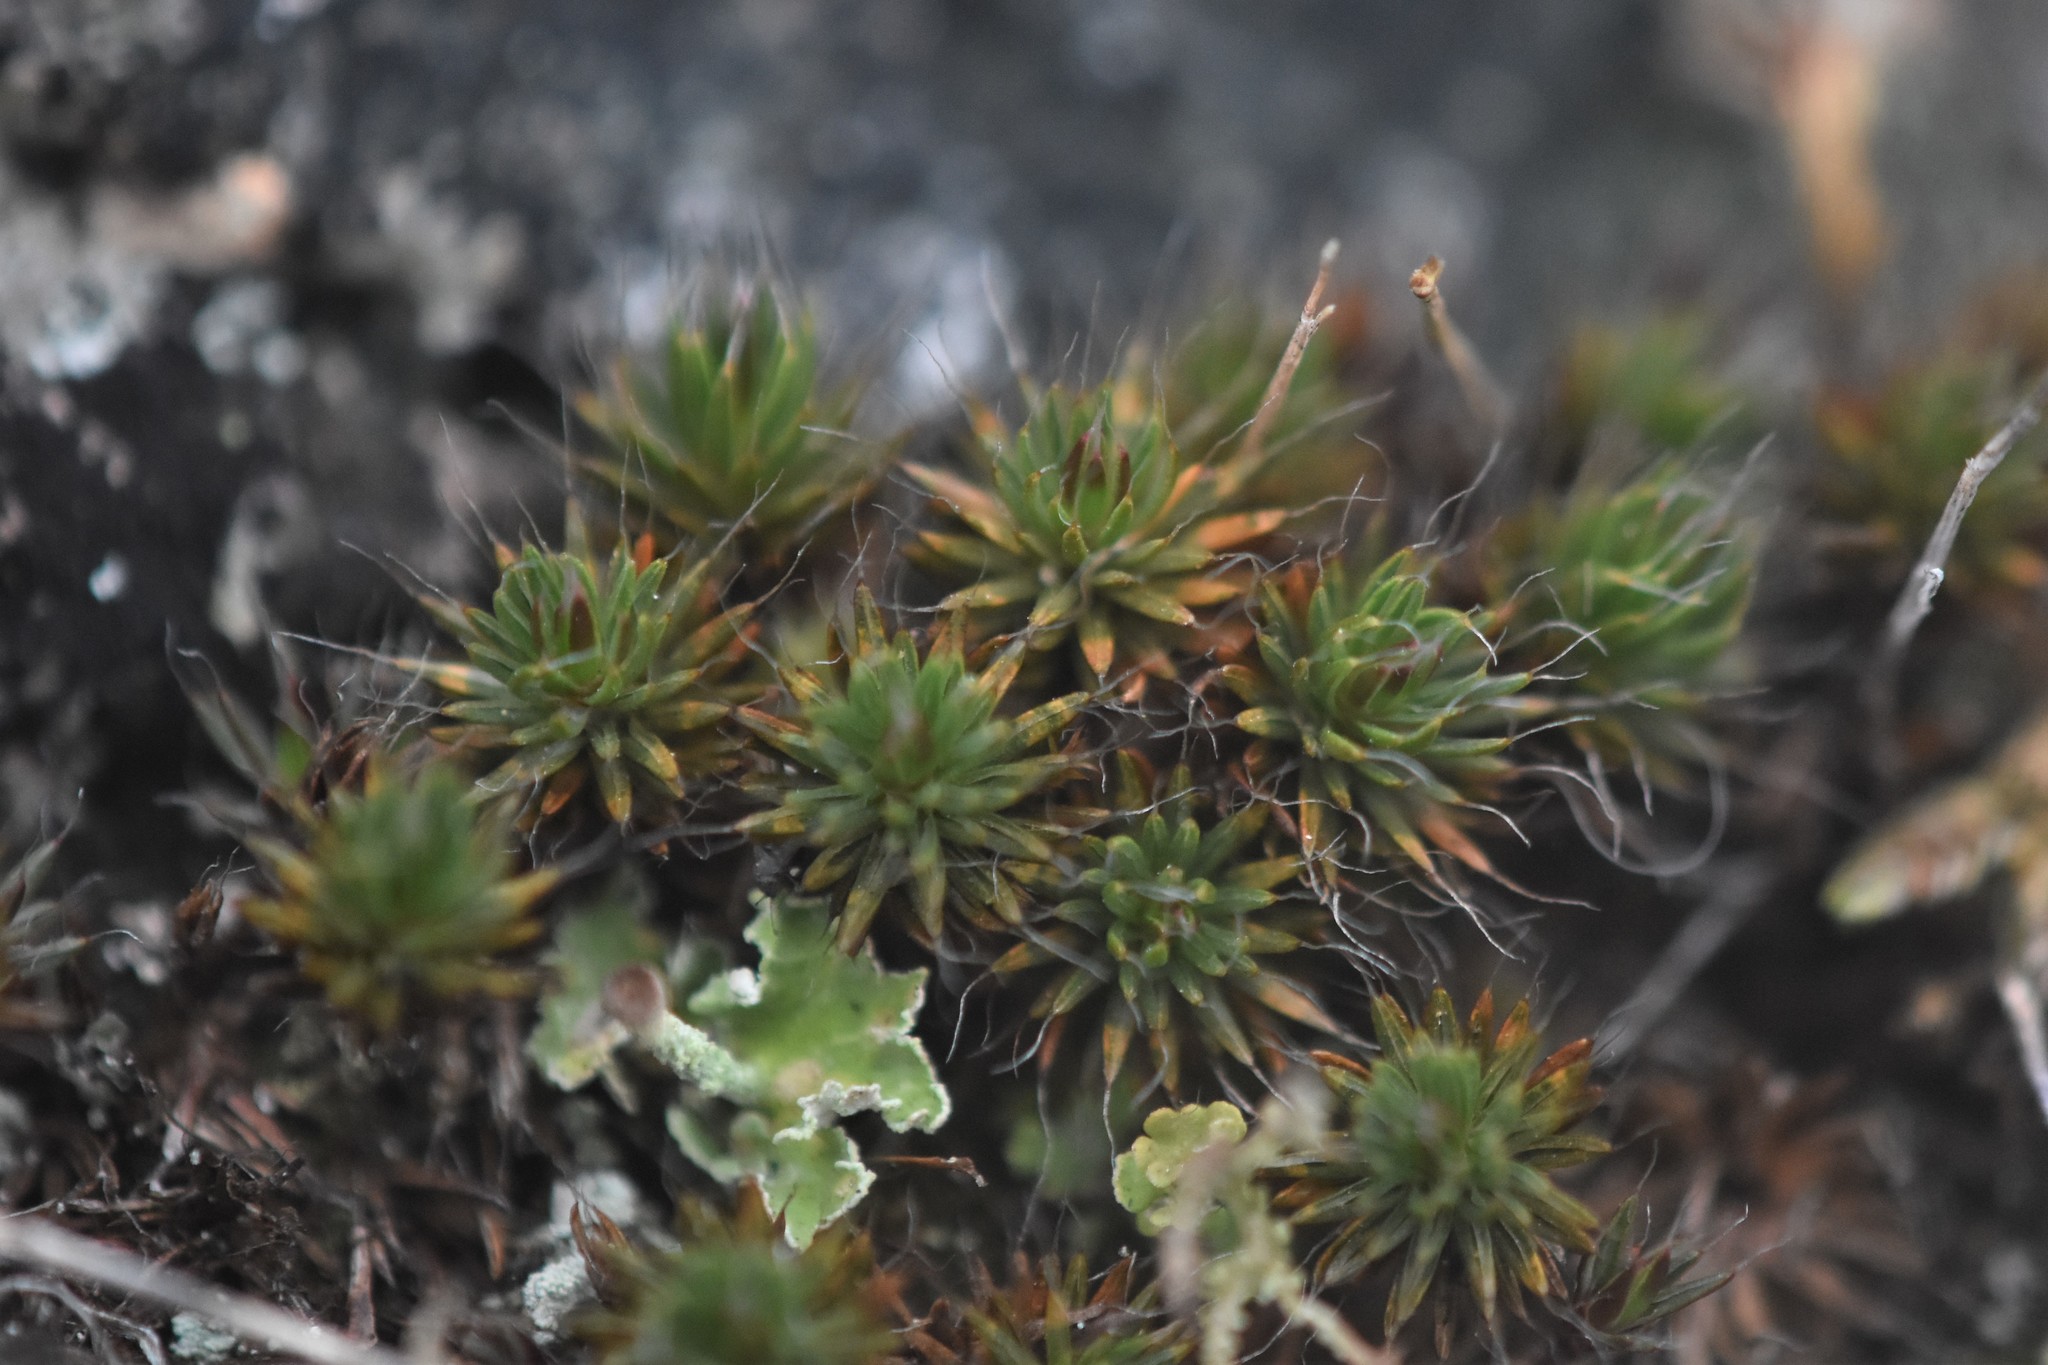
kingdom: Plantae
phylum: Bryophyta
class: Polytrichopsida
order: Polytrichales
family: Polytrichaceae
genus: Polytrichum
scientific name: Polytrichum piliferum
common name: Bristly haircap
